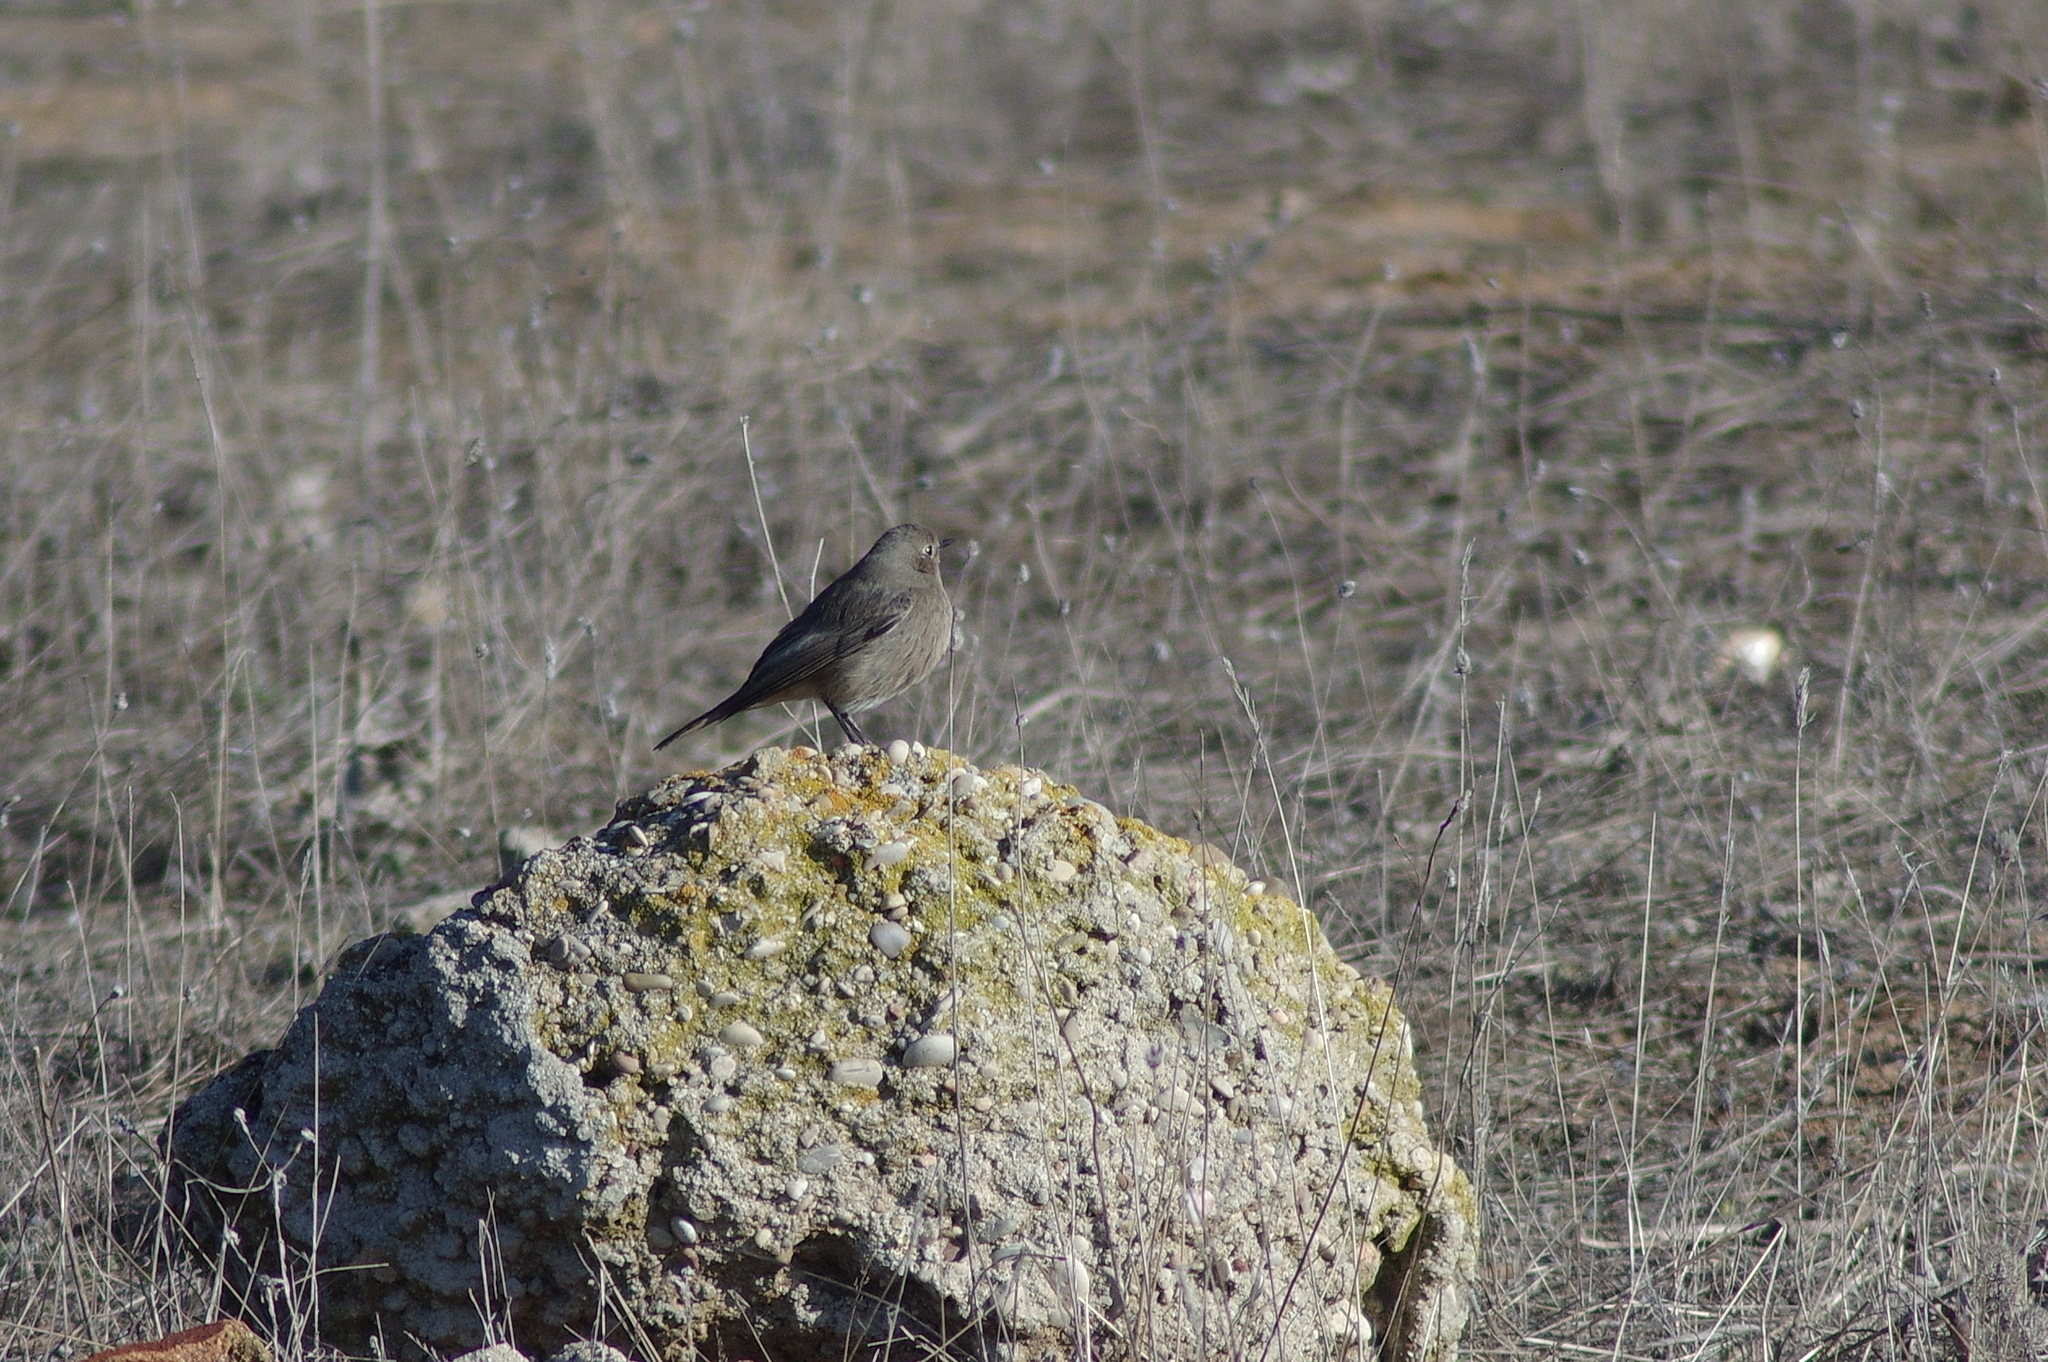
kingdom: Animalia
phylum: Chordata
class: Aves
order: Passeriformes
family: Muscicapidae
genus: Phoenicurus
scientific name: Phoenicurus ochruros
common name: Black redstart
